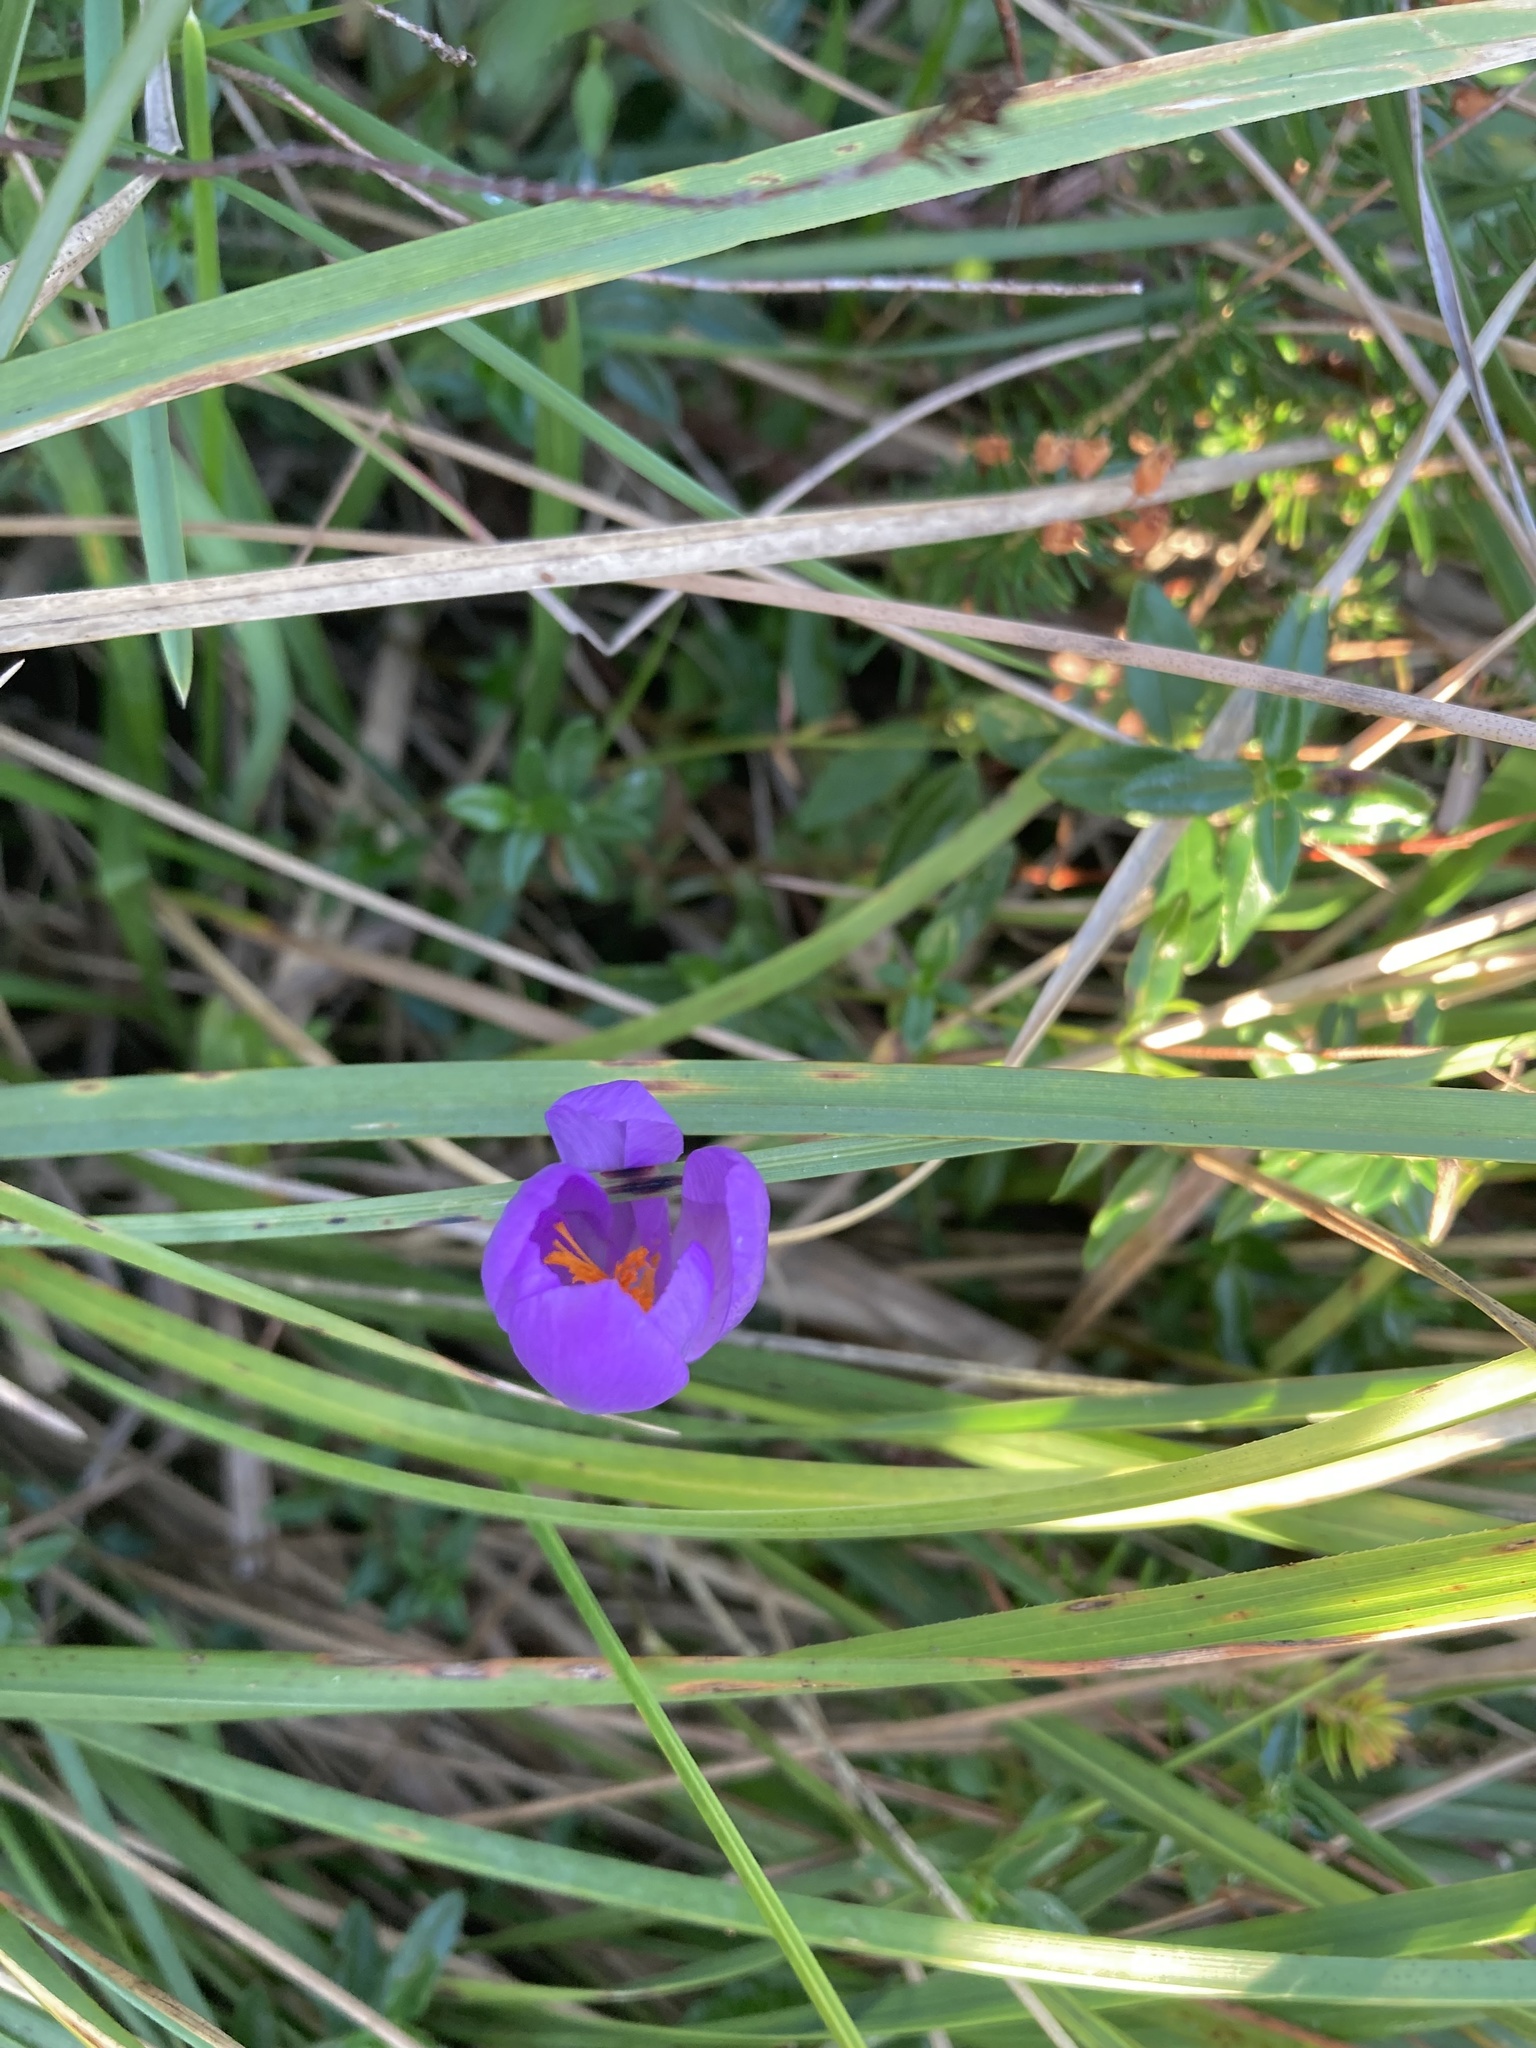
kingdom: Plantae
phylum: Tracheophyta
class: Liliopsida
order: Asparagales
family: Iridaceae
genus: Crocus
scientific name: Crocus nudiflorus
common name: Autumn crocus
